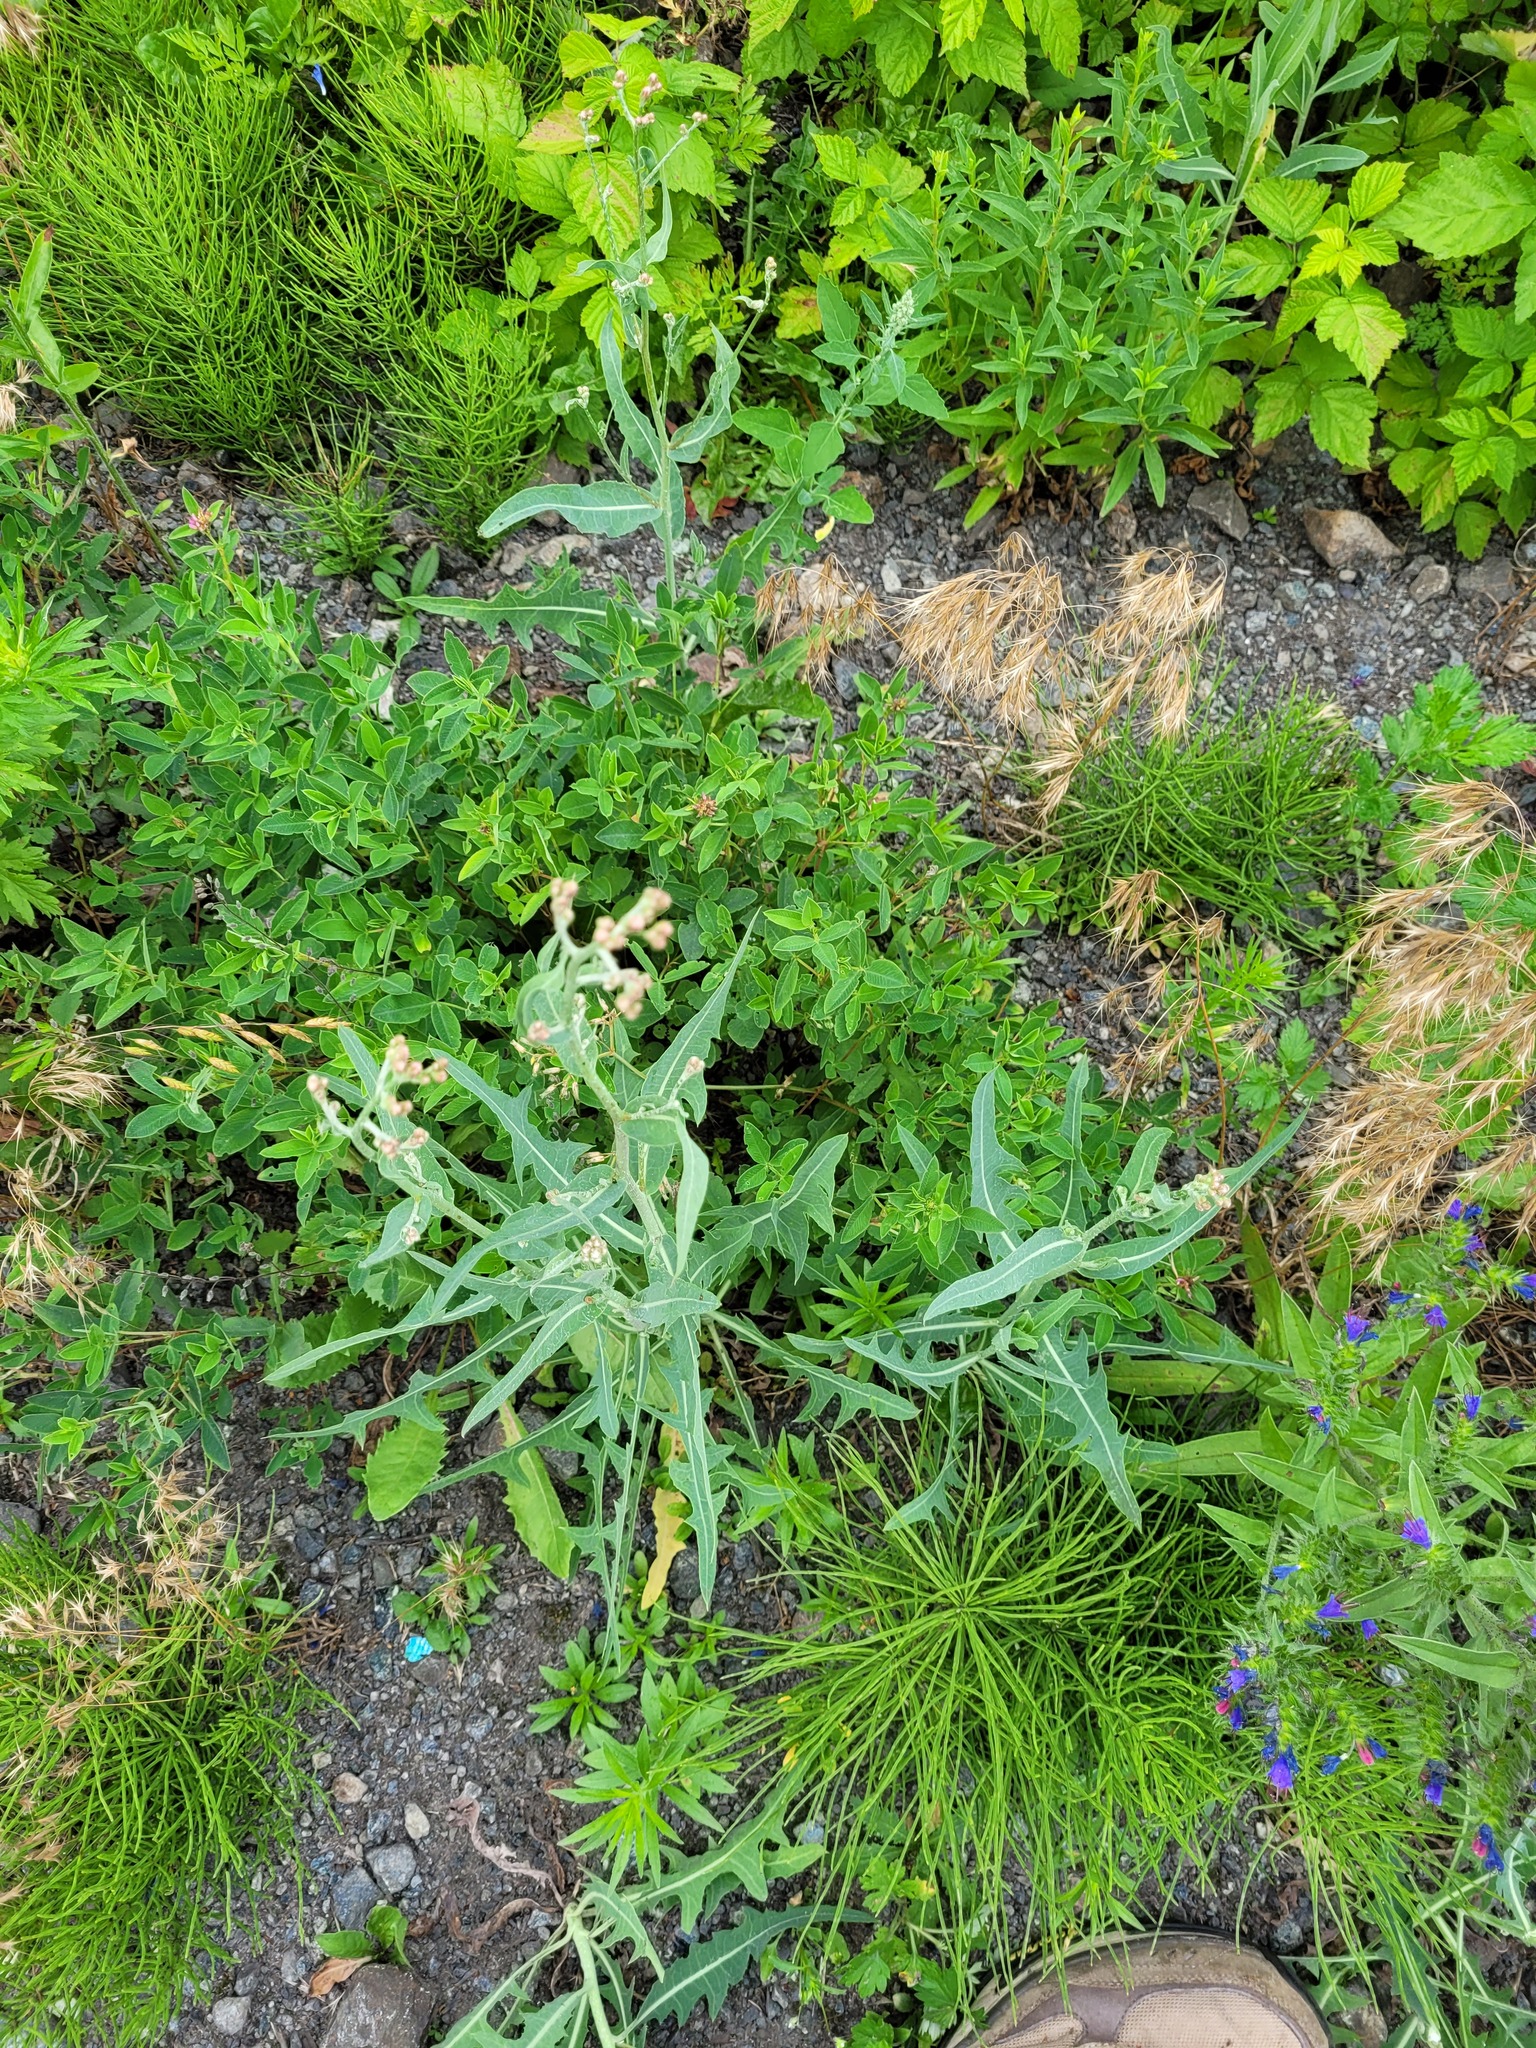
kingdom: Plantae
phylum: Tracheophyta
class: Magnoliopsida
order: Asterales
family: Asteraceae
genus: Lactuca
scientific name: Lactuca tatarica
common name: Blue lettuce
